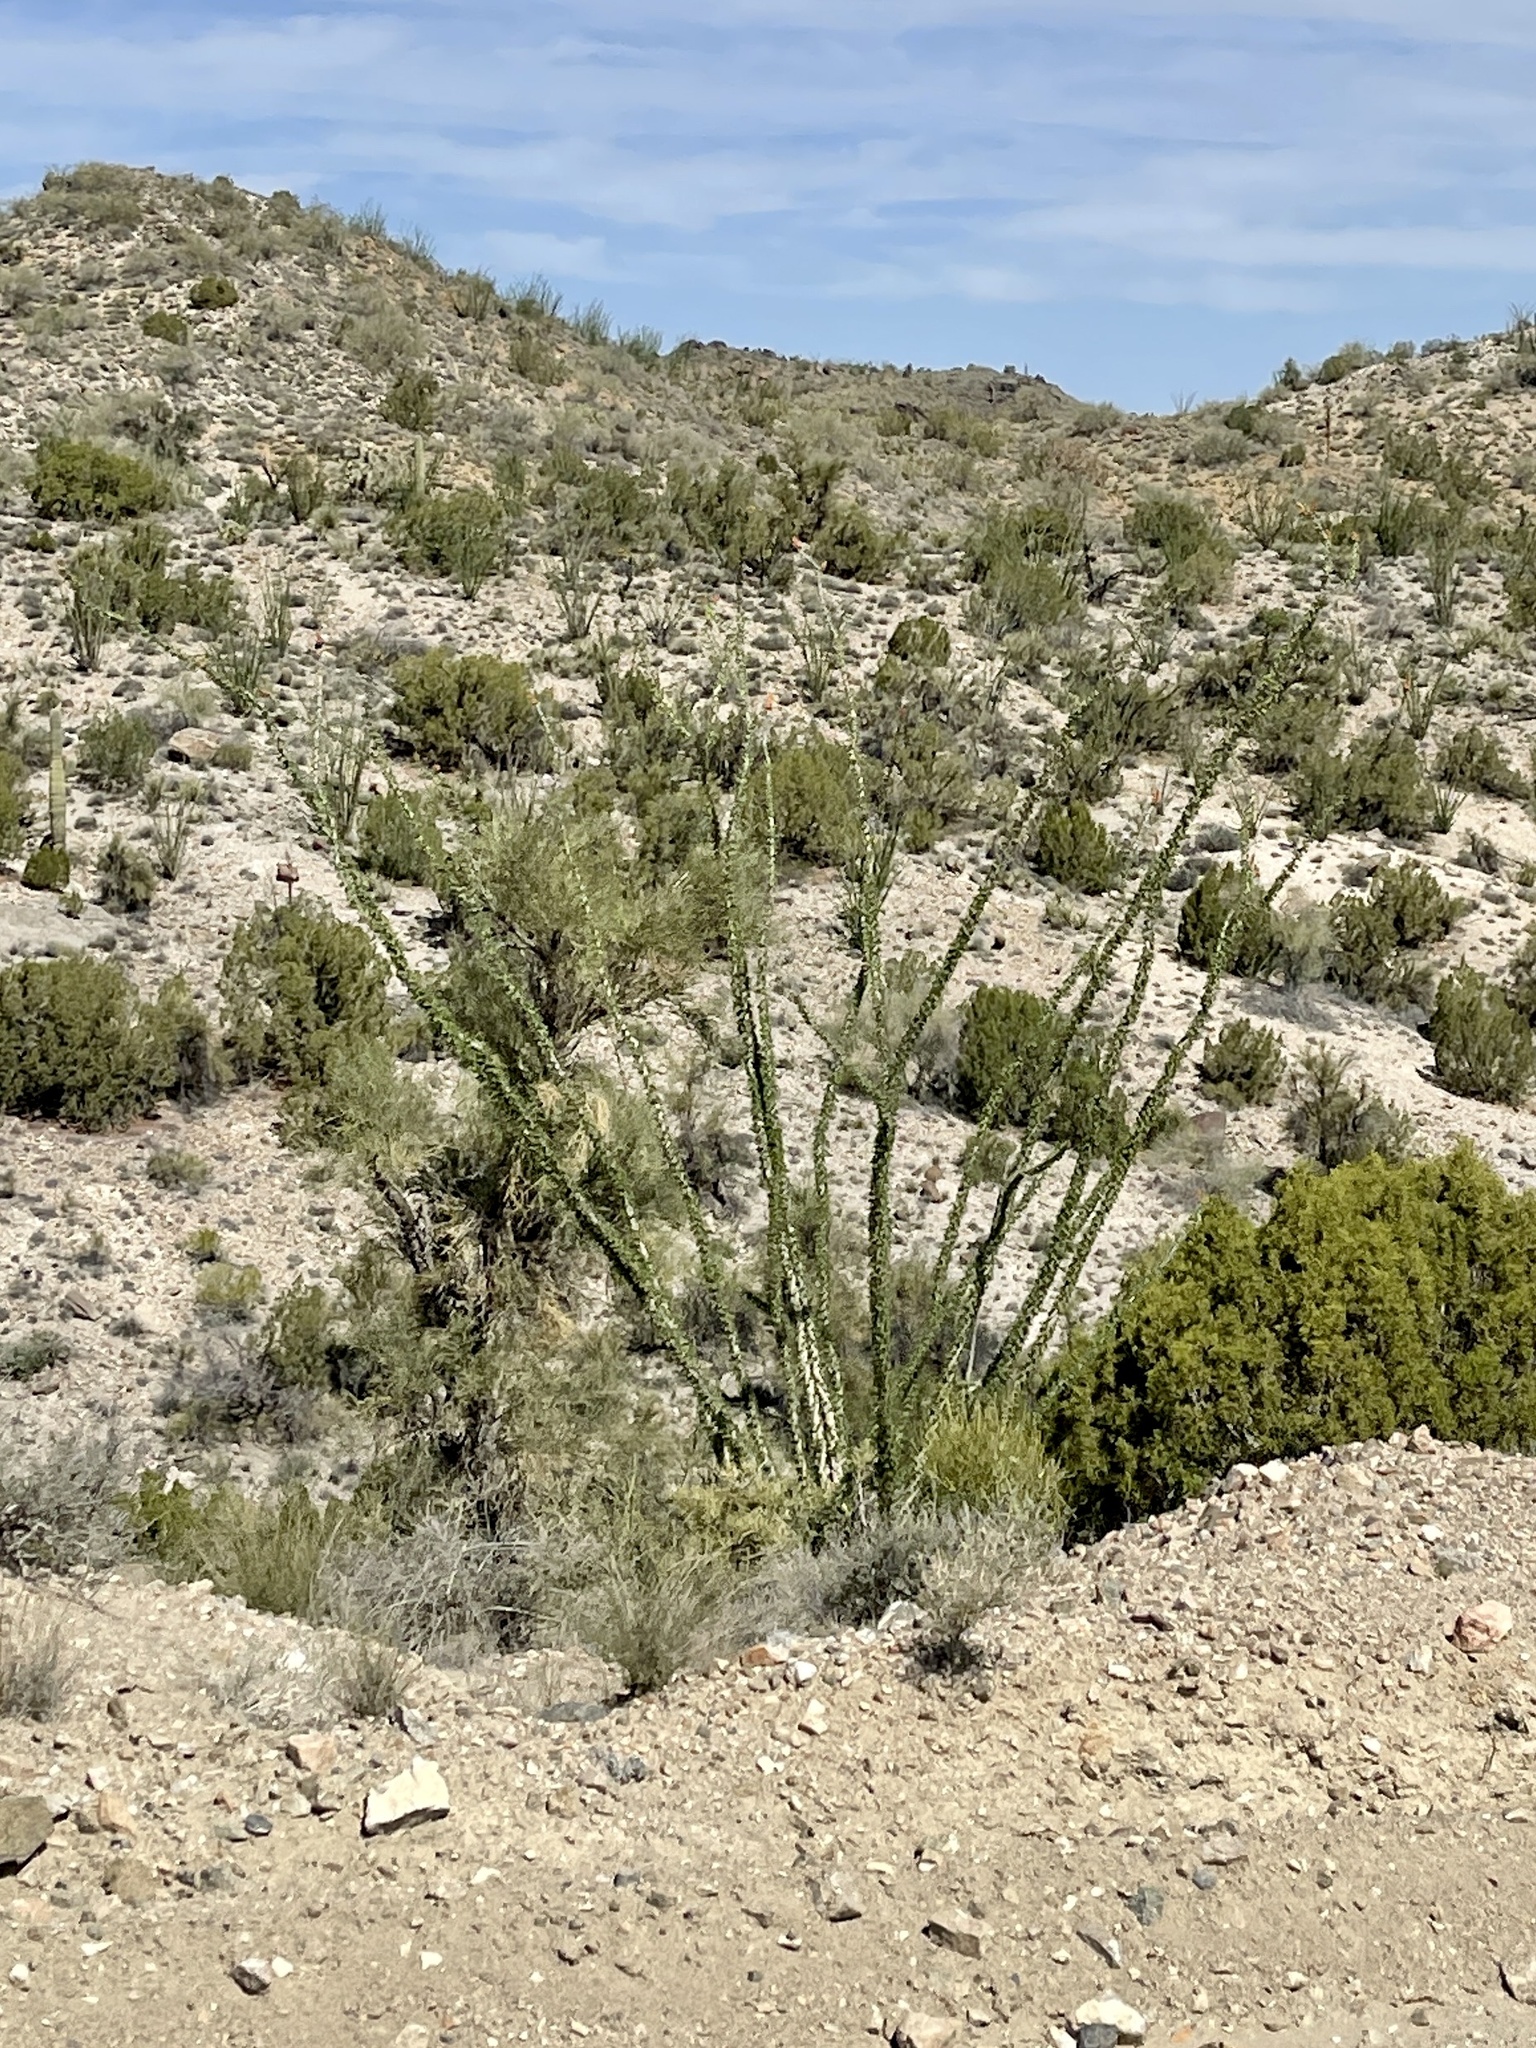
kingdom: Plantae
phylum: Tracheophyta
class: Magnoliopsida
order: Ericales
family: Fouquieriaceae
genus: Fouquieria
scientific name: Fouquieria splendens
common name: Vine-cactus
